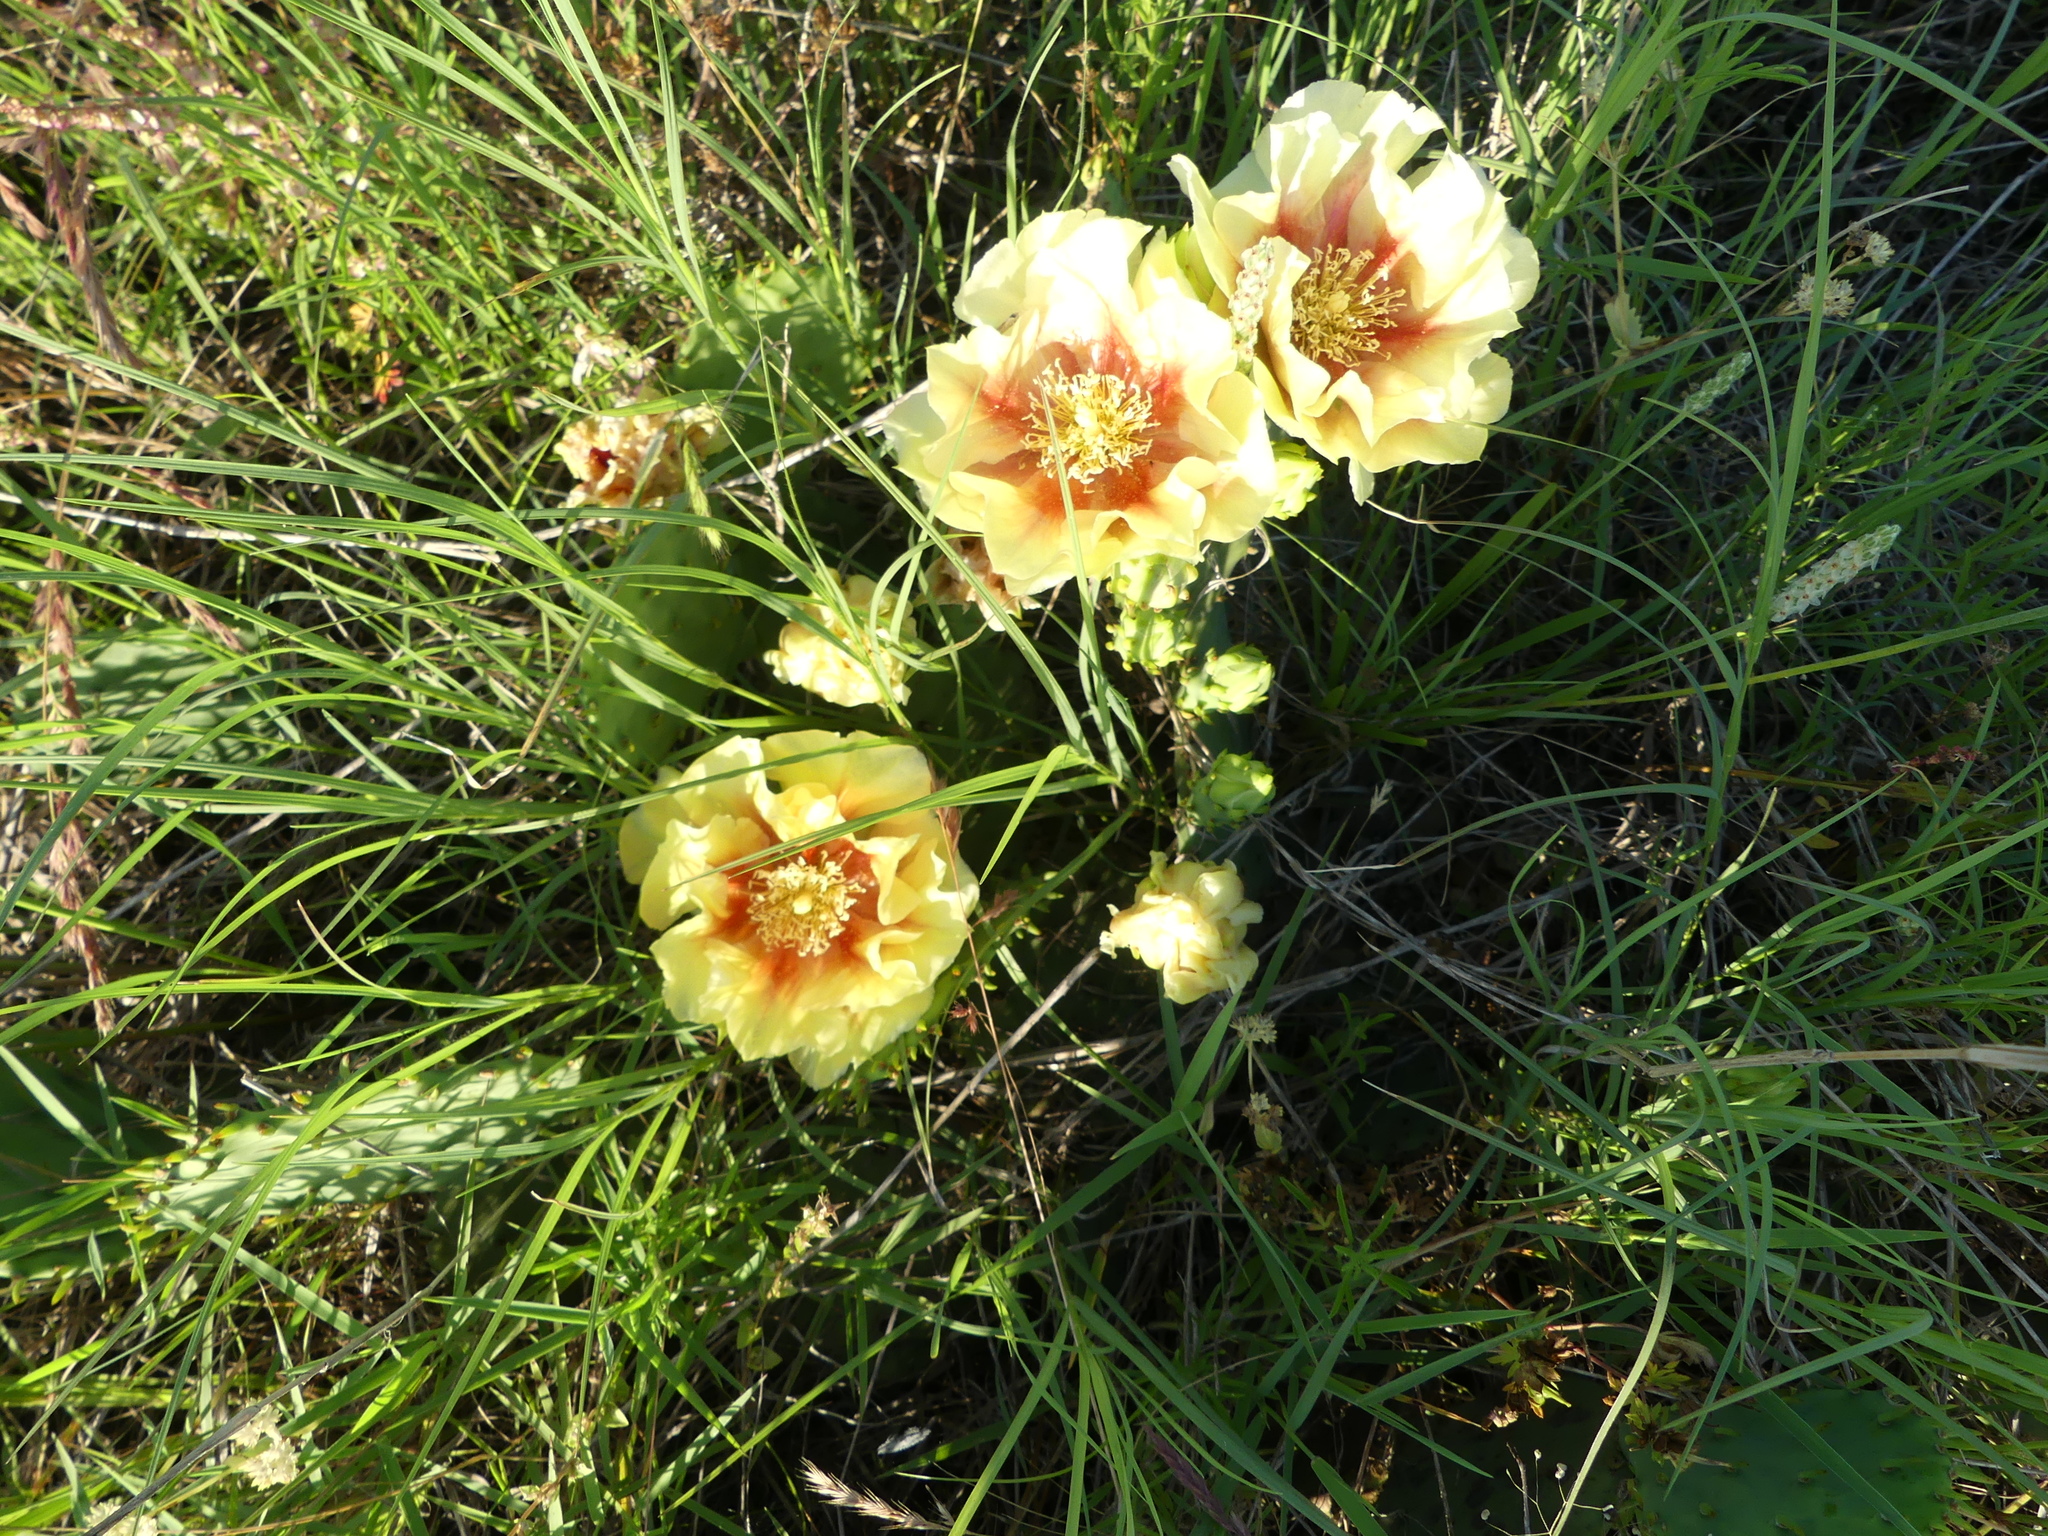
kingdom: Plantae
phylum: Tracheophyta
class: Magnoliopsida
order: Caryophyllales
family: Cactaceae
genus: Opuntia
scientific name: Opuntia macrorhiza
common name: Grassland pricklypear
